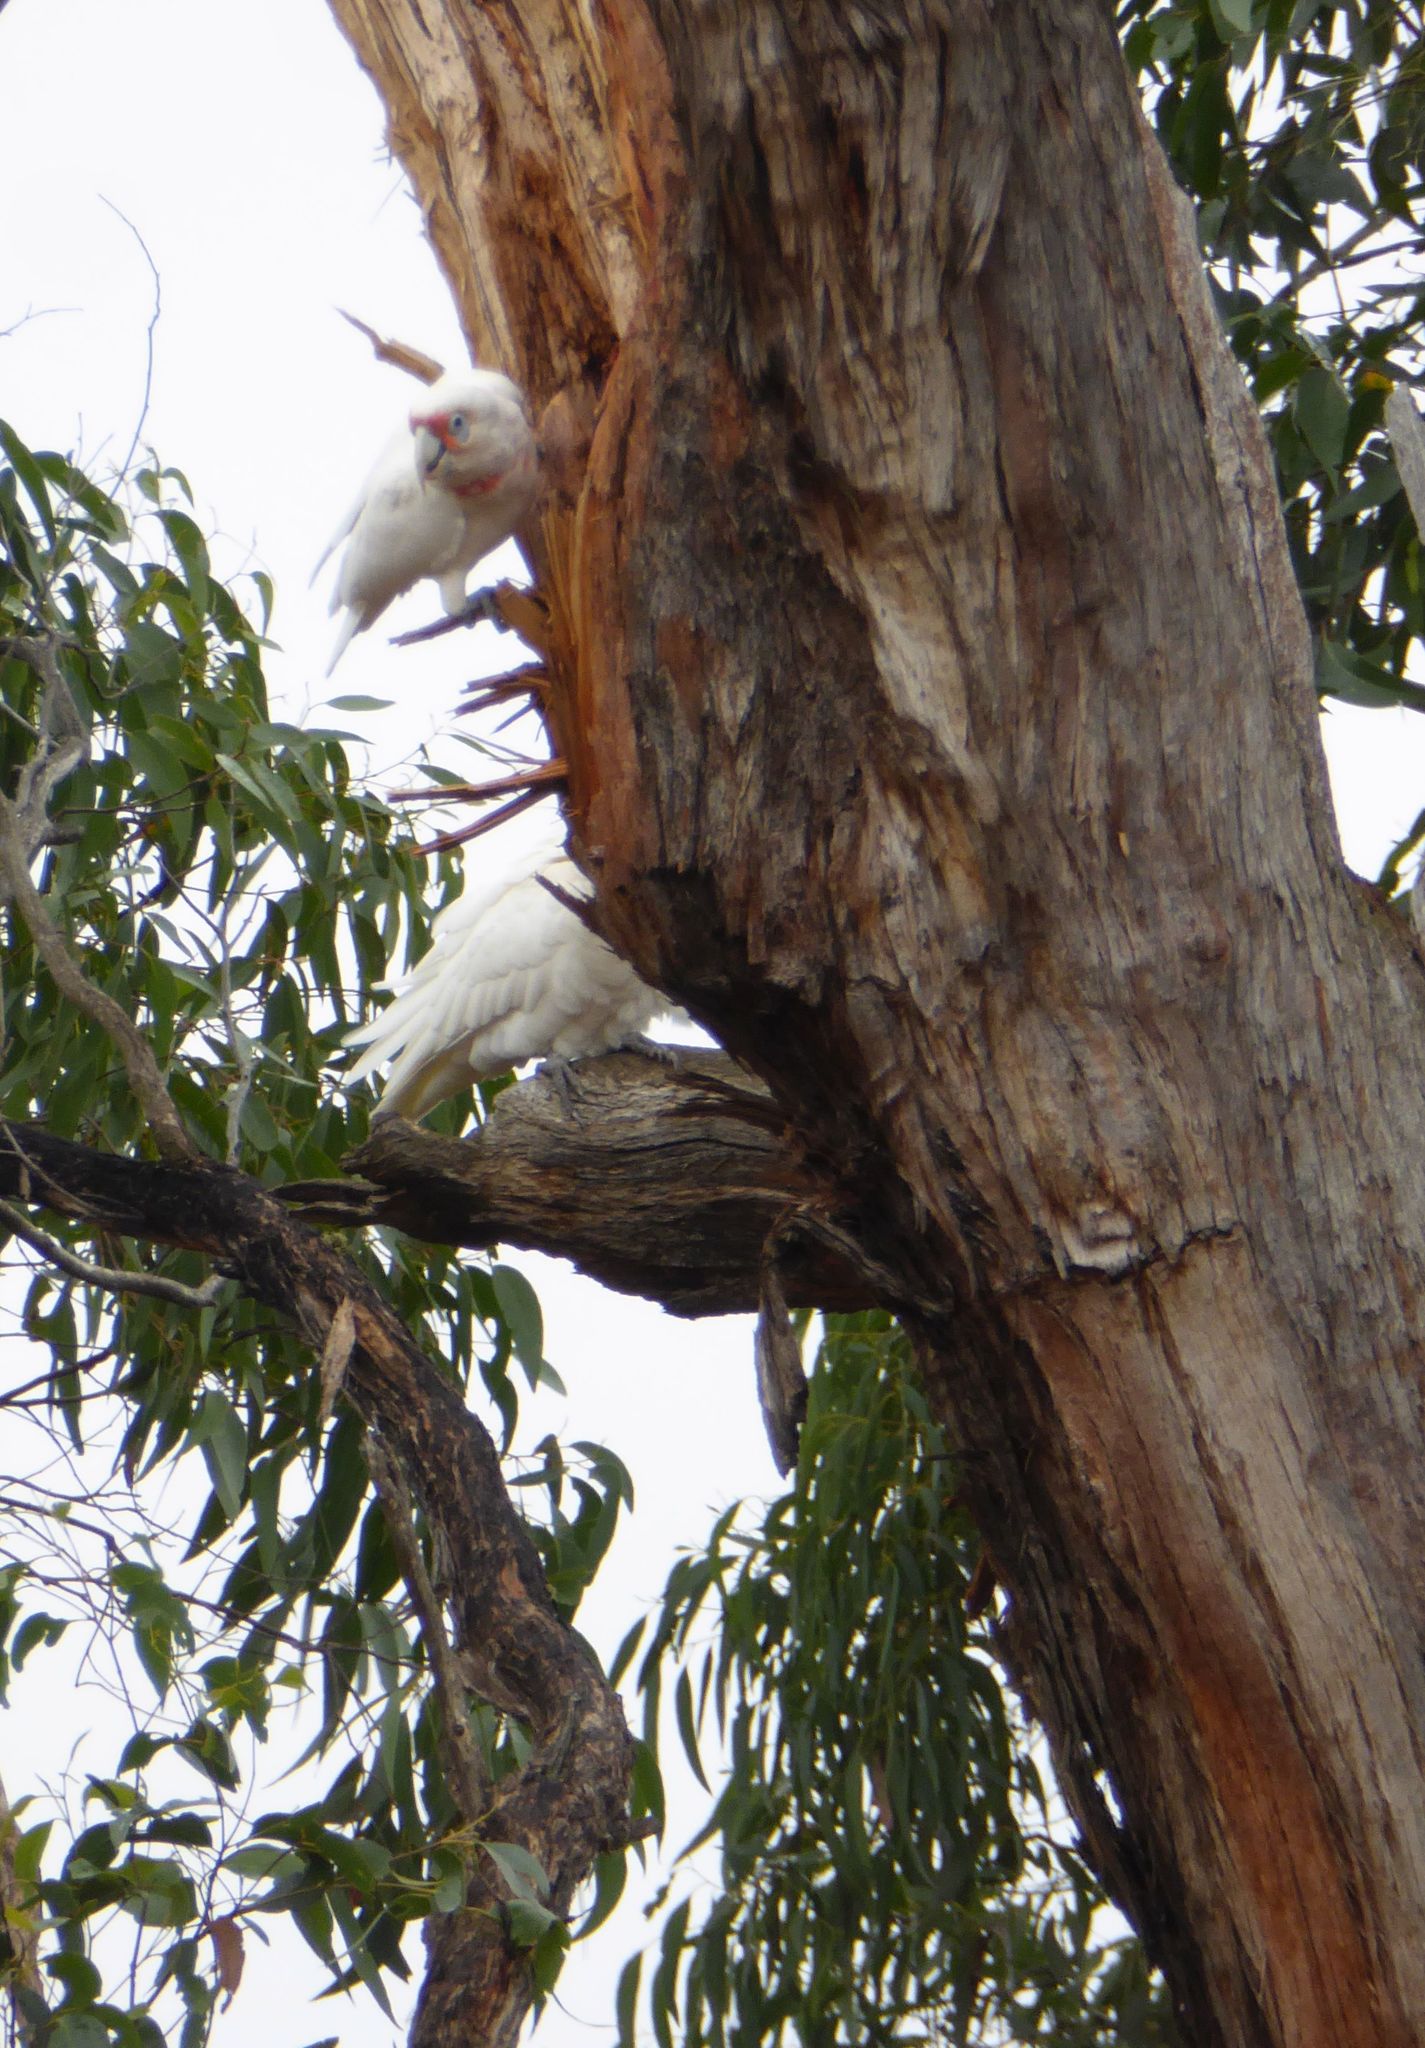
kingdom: Animalia
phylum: Chordata
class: Aves
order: Psittaciformes
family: Psittacidae
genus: Cacatua
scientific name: Cacatua tenuirostris
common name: Long-billed corella
